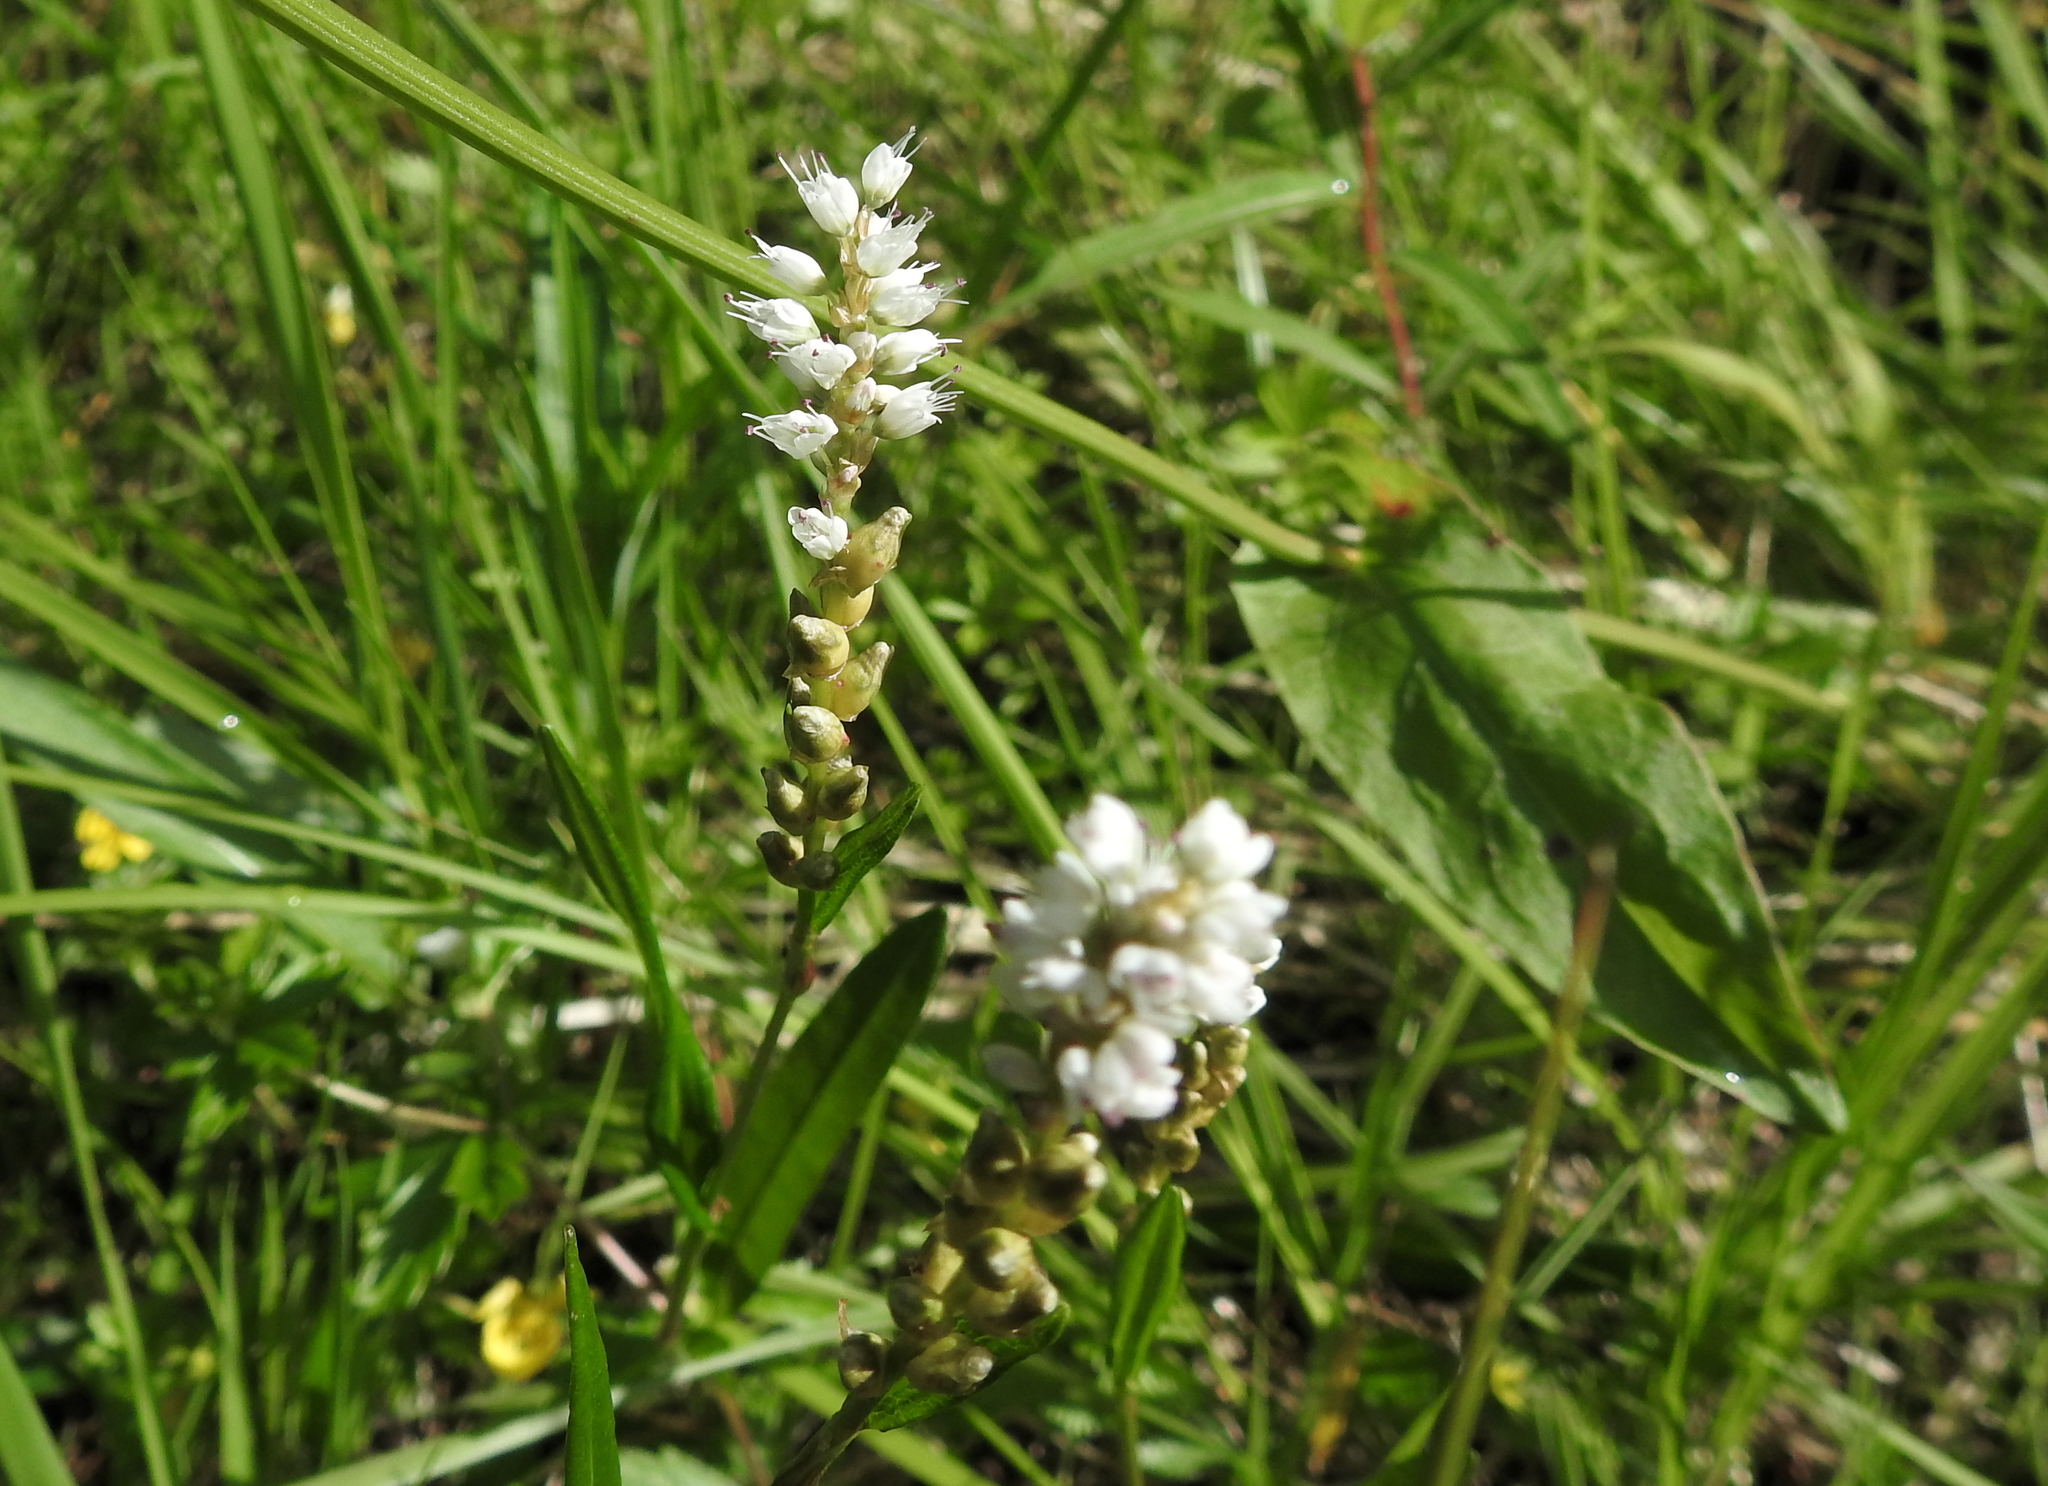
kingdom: Plantae
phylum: Tracheophyta
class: Magnoliopsida
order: Caryophyllales
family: Polygonaceae
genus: Bistorta
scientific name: Bistorta vivipara
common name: Alpine bistort
